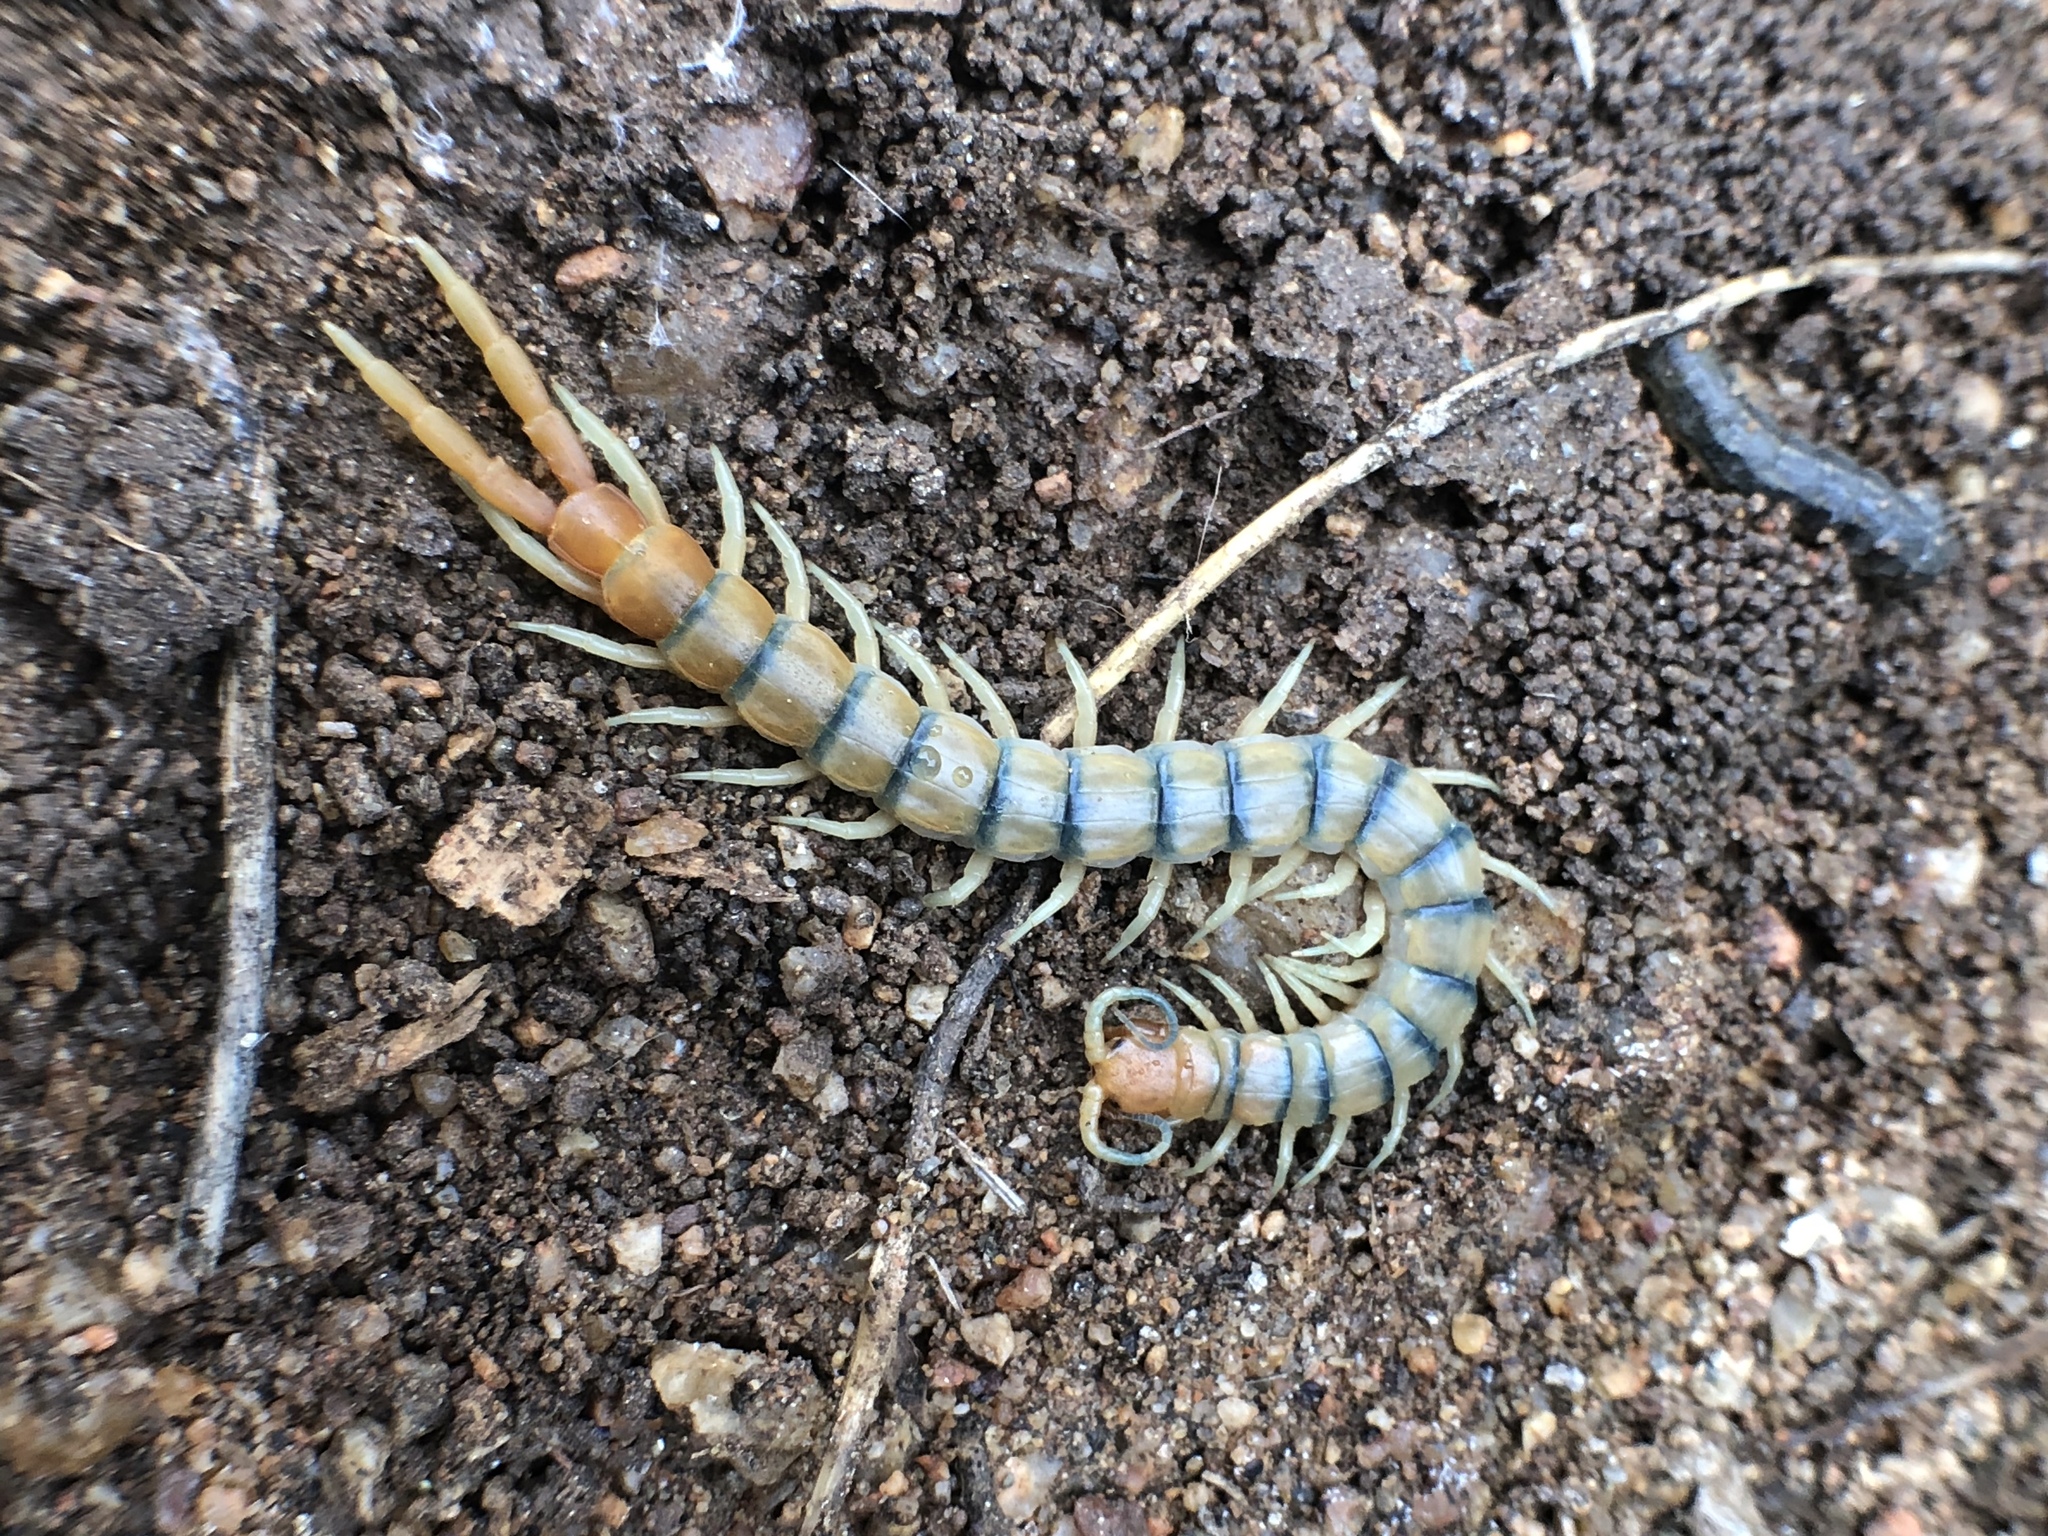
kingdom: Animalia
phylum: Arthropoda
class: Chilopoda
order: Scolopendromorpha
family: Scolopendridae
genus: Scolopendra
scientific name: Scolopendra polymorpha
